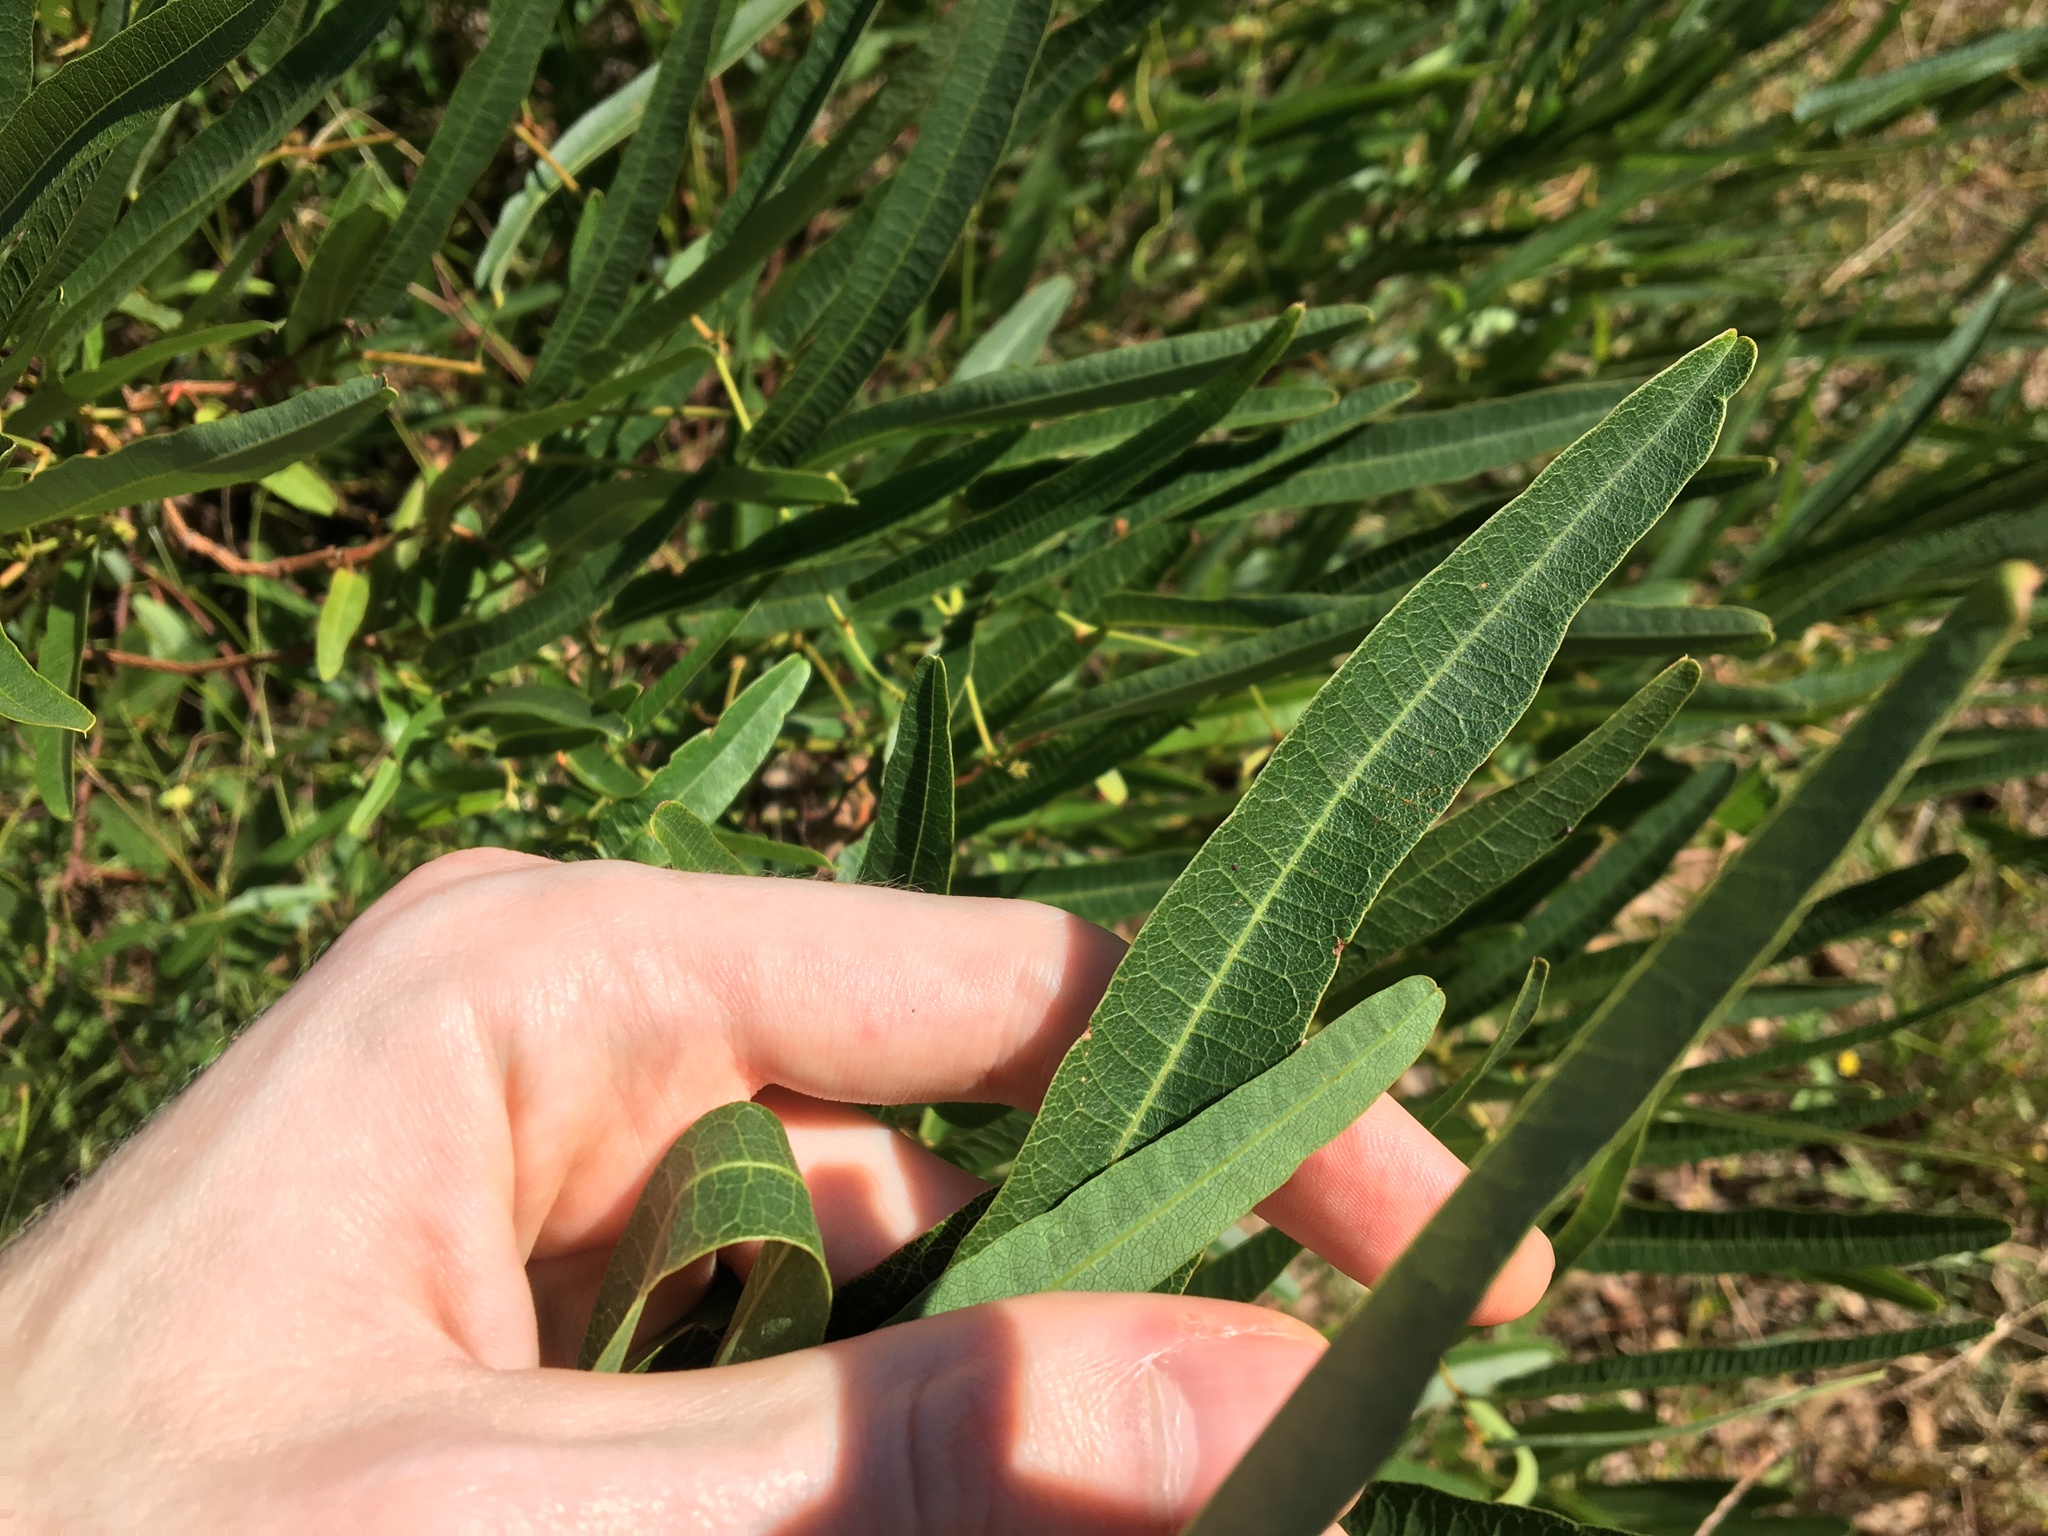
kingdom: Plantae
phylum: Tracheophyta
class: Magnoliopsida
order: Fabales
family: Fabaceae
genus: Hardenbergia
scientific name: Hardenbergia violacea
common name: Coral-pea
